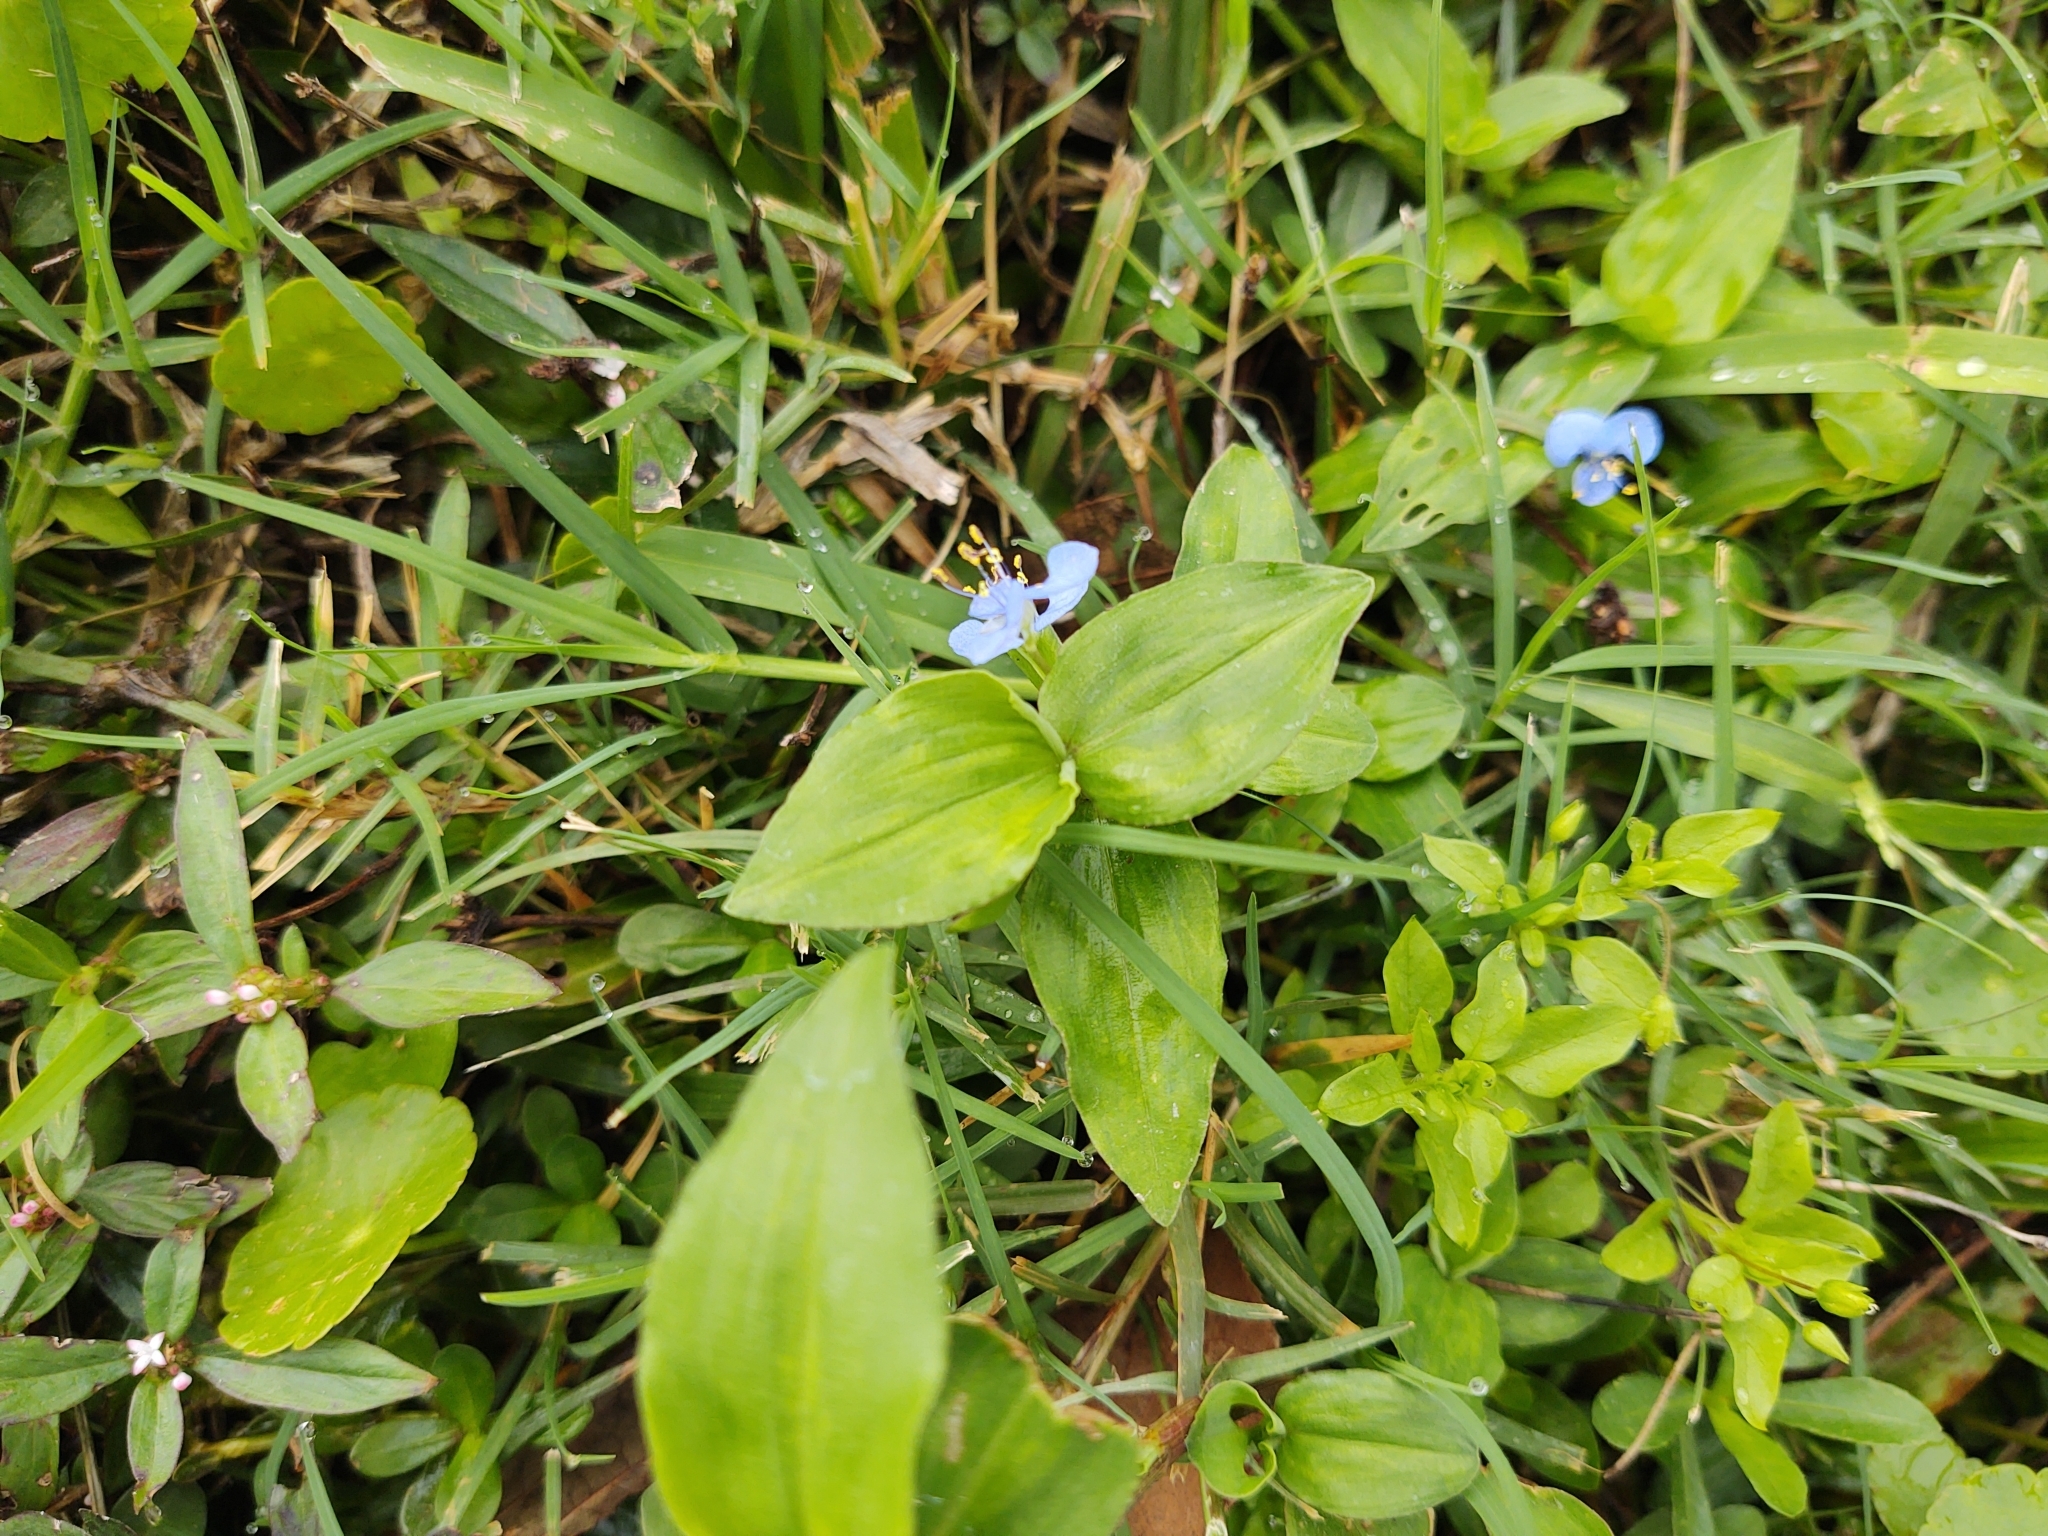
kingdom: Plantae
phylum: Tracheophyta
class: Liliopsida
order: Commelinales
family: Commelinaceae
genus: Commelina
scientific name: Commelina diffusa
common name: Climbing dayflower
